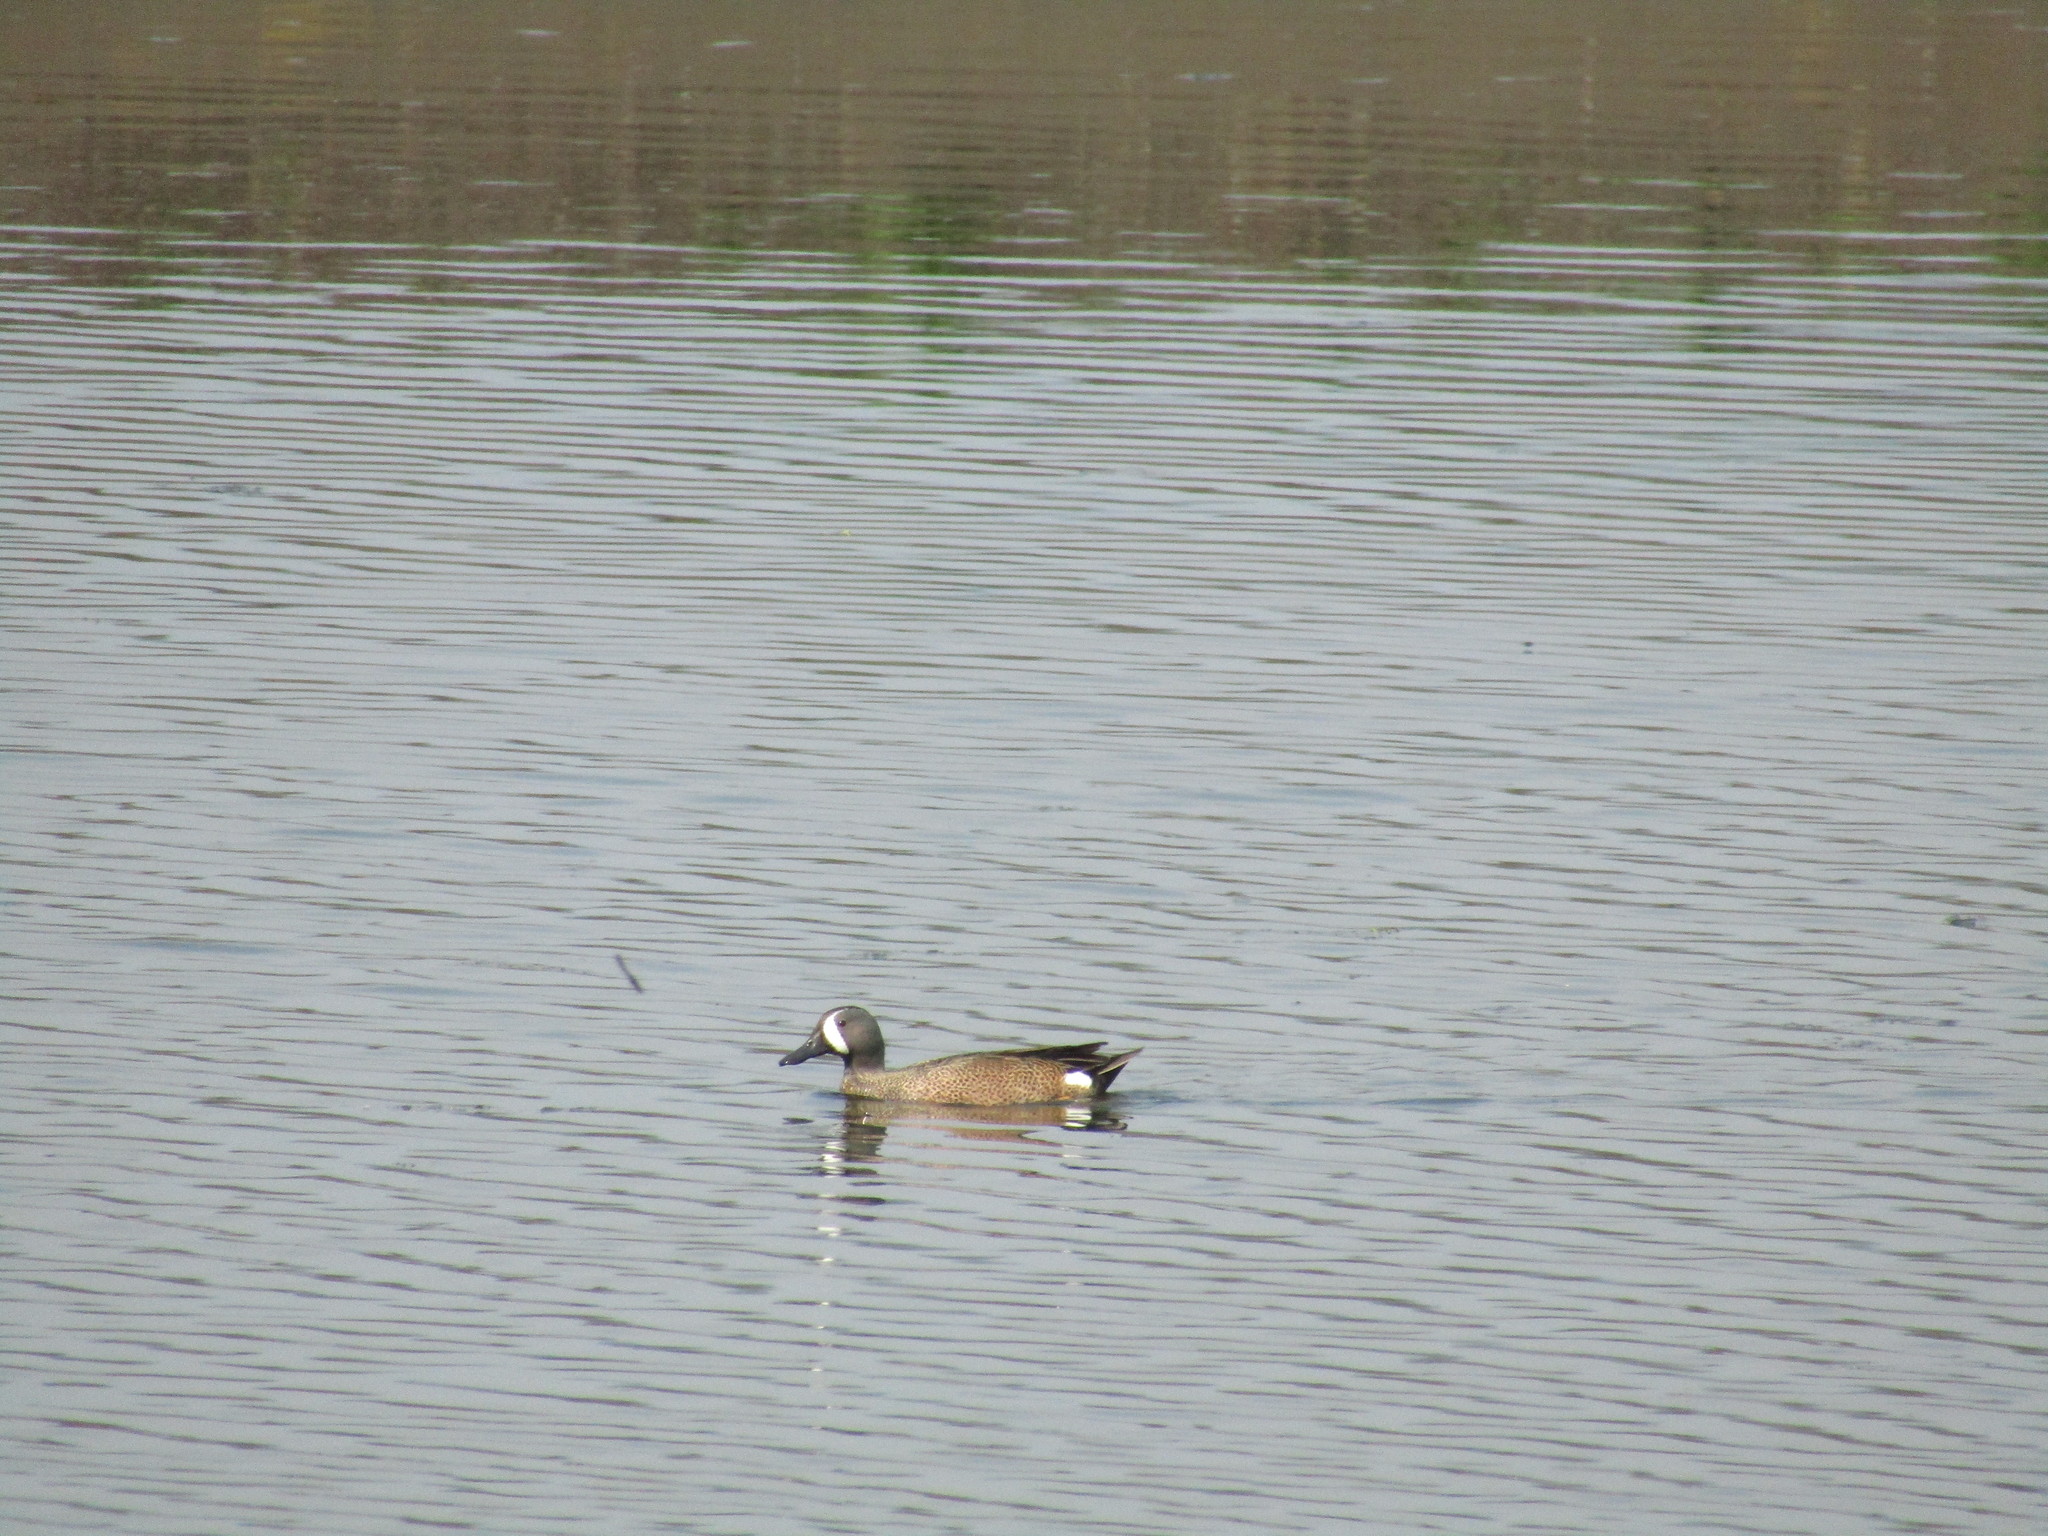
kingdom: Animalia
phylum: Chordata
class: Aves
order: Anseriformes
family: Anatidae
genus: Spatula
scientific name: Spatula discors
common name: Blue-winged teal
